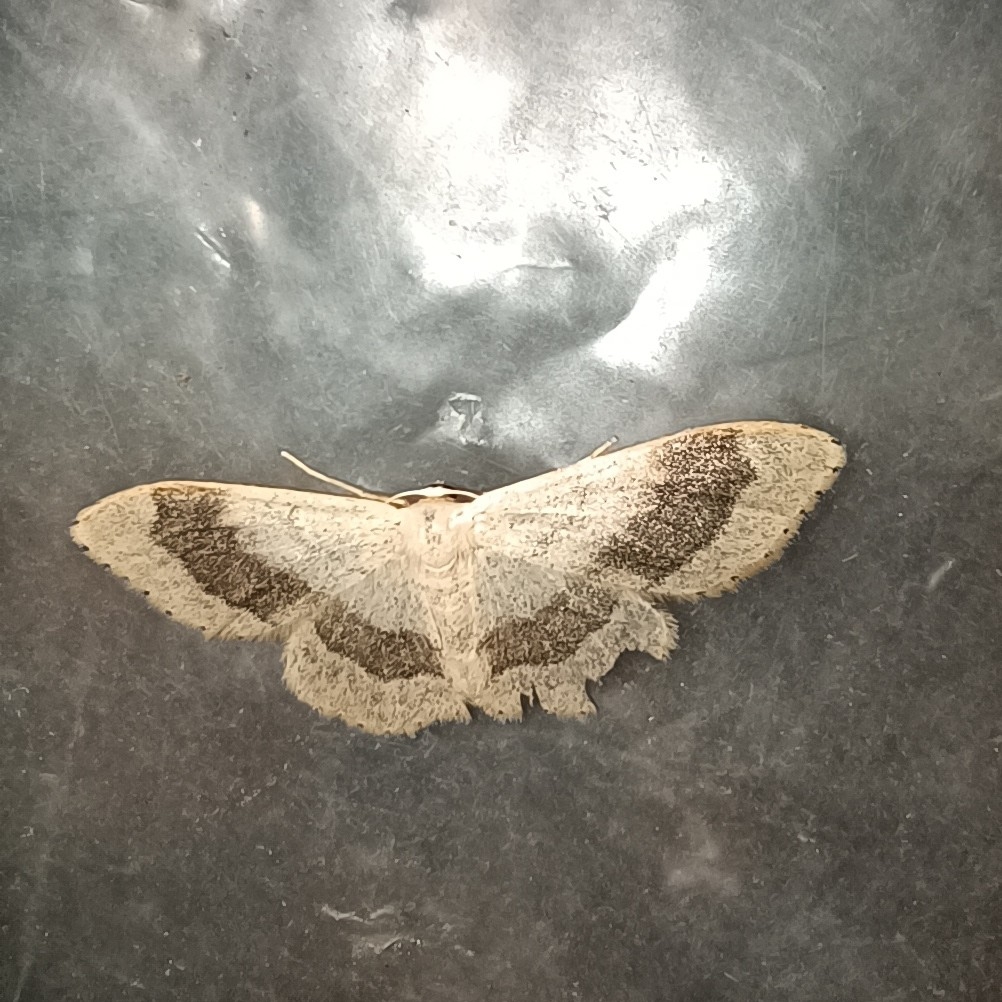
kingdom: Animalia
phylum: Arthropoda
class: Insecta
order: Lepidoptera
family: Geometridae
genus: Idaea
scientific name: Idaea aversata
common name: Riband wave
